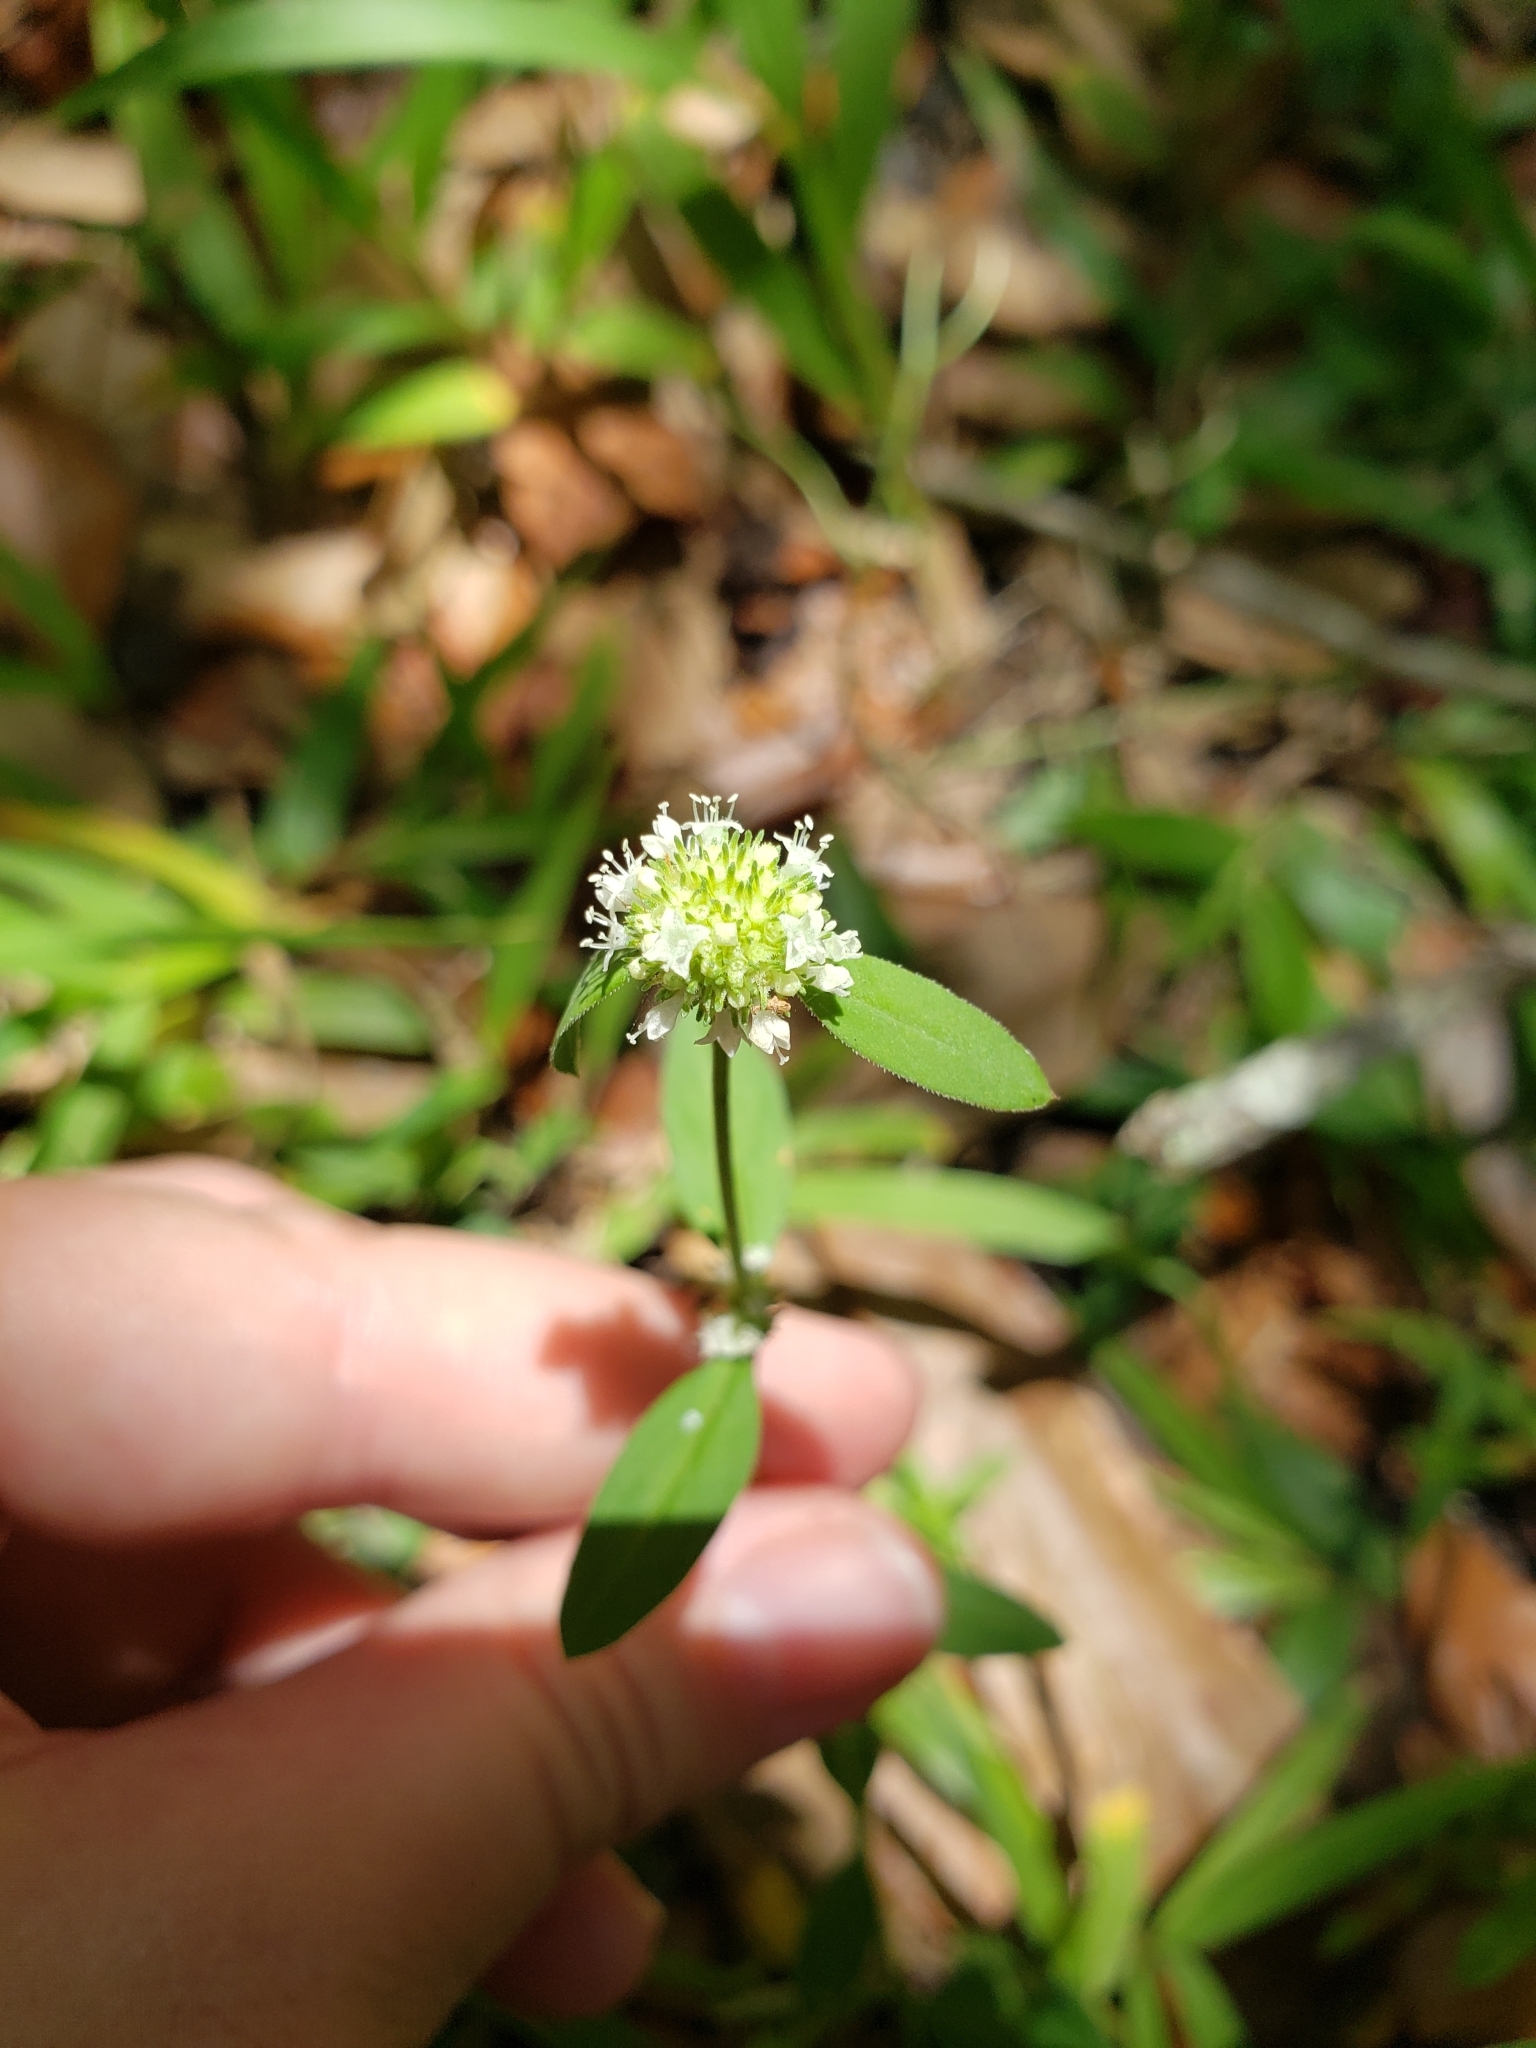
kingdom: Plantae
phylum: Tracheophyta
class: Magnoliopsida
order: Gentianales
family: Rubiaceae
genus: Spermacoce
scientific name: Spermacoce verticillata
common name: Shrubby false buttonweed
